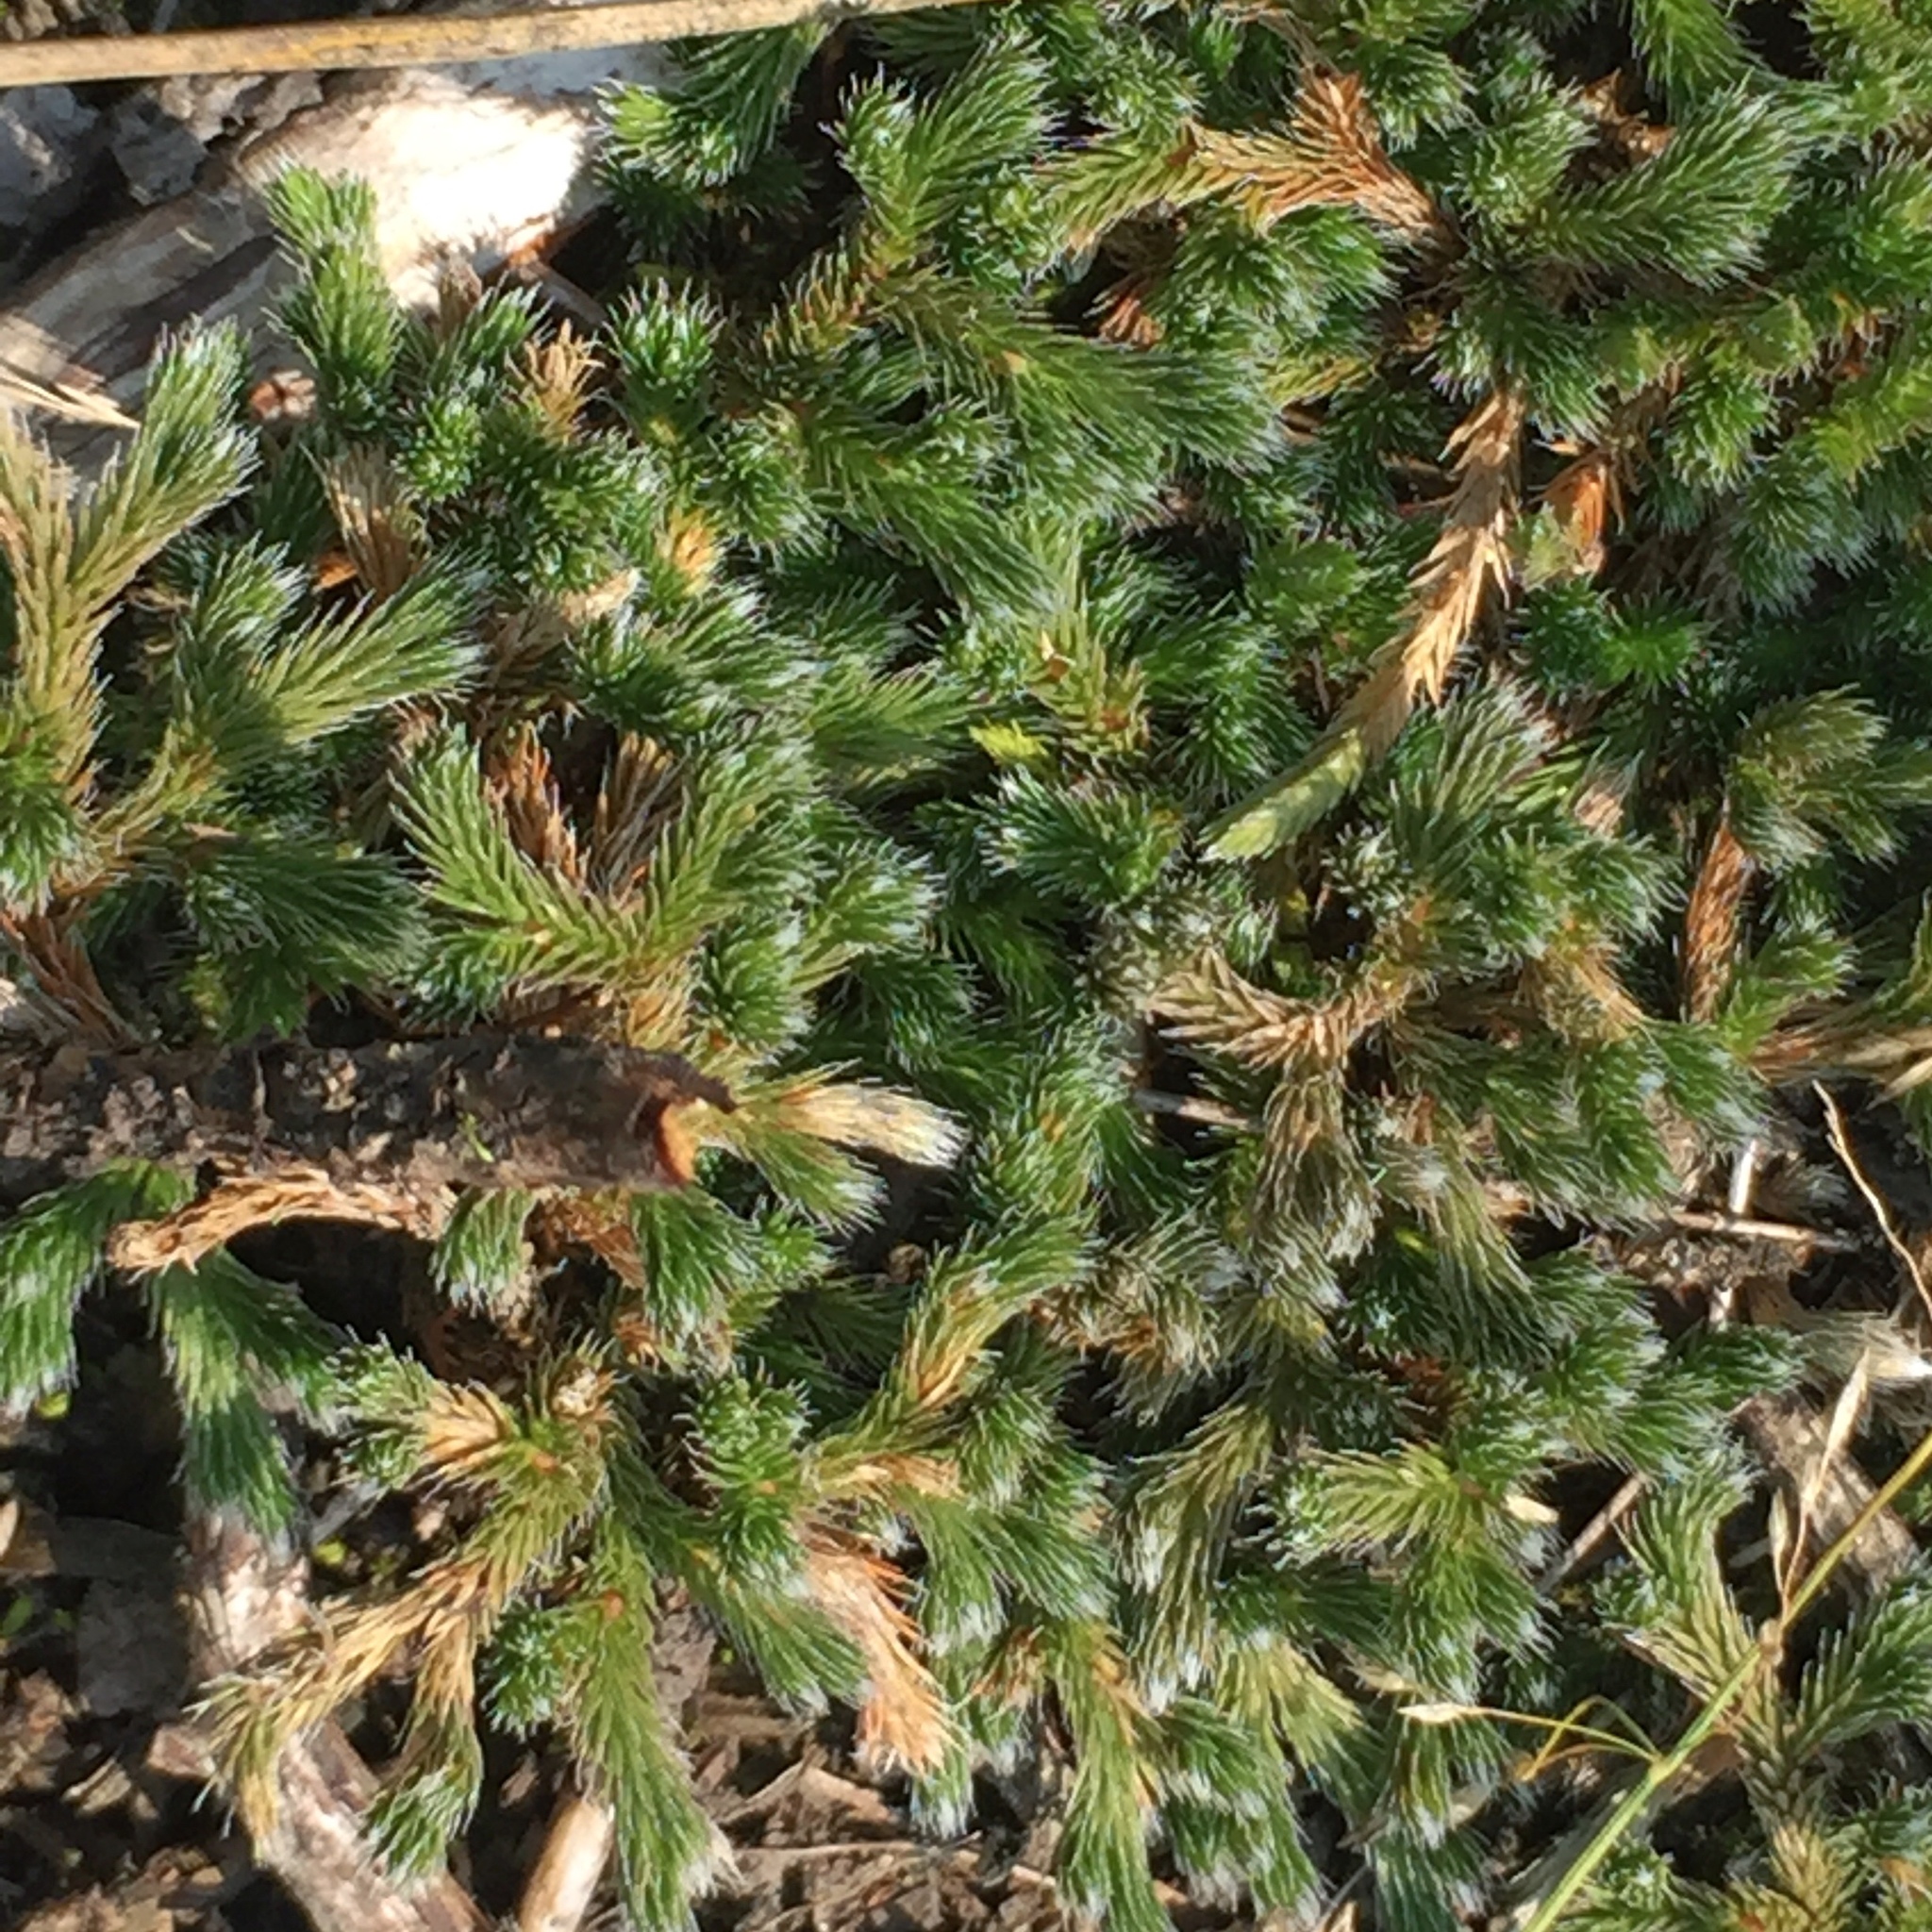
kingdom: Plantae
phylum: Tracheophyta
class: Lycopodiopsida
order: Selaginellales
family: Selaginellaceae
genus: Selaginella
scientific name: Selaginella rupestris
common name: Dwarf spikemoss
